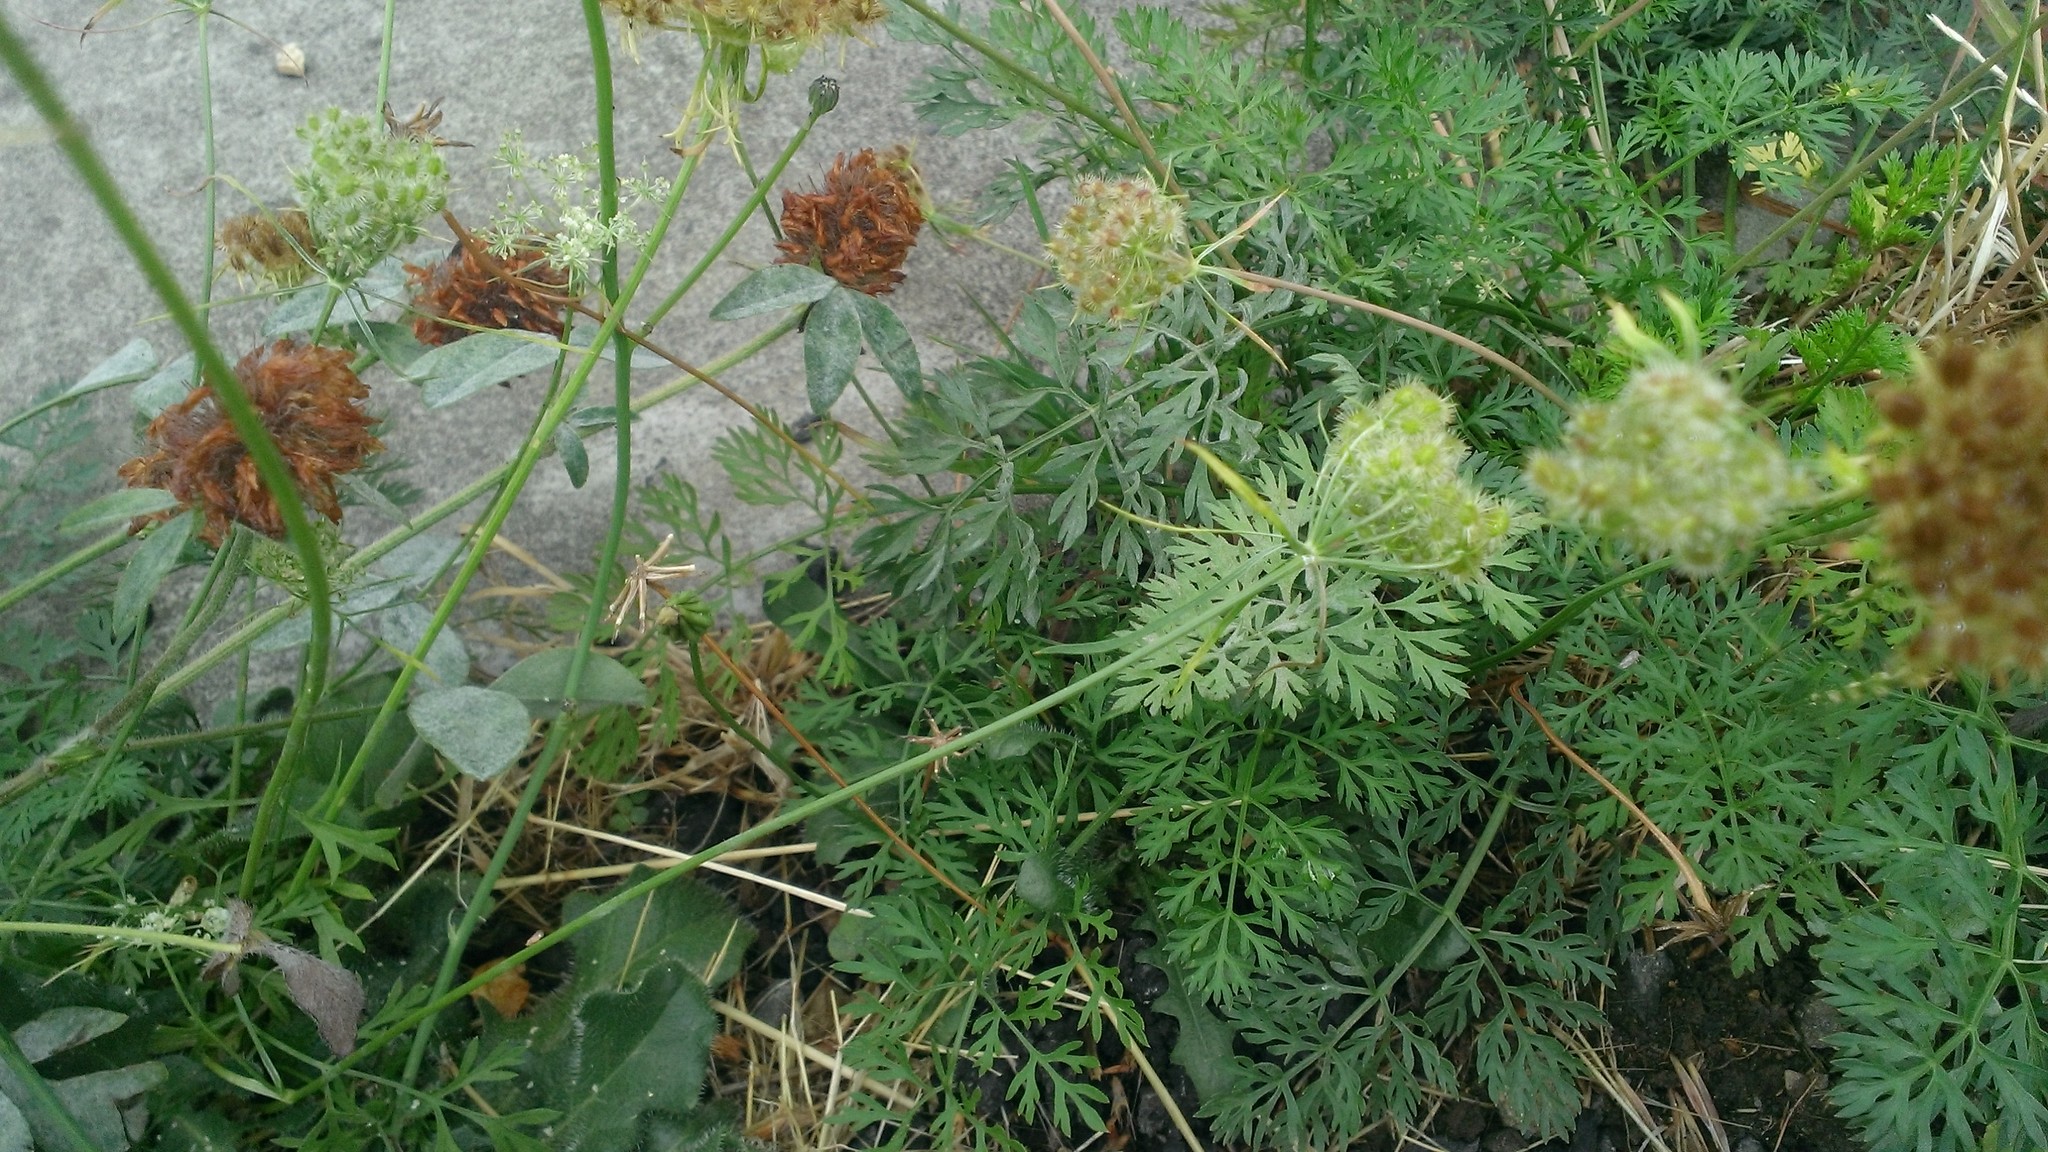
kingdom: Plantae
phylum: Tracheophyta
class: Magnoliopsida
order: Apiales
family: Apiaceae
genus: Daucus
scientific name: Daucus carota
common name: Wild carrot
